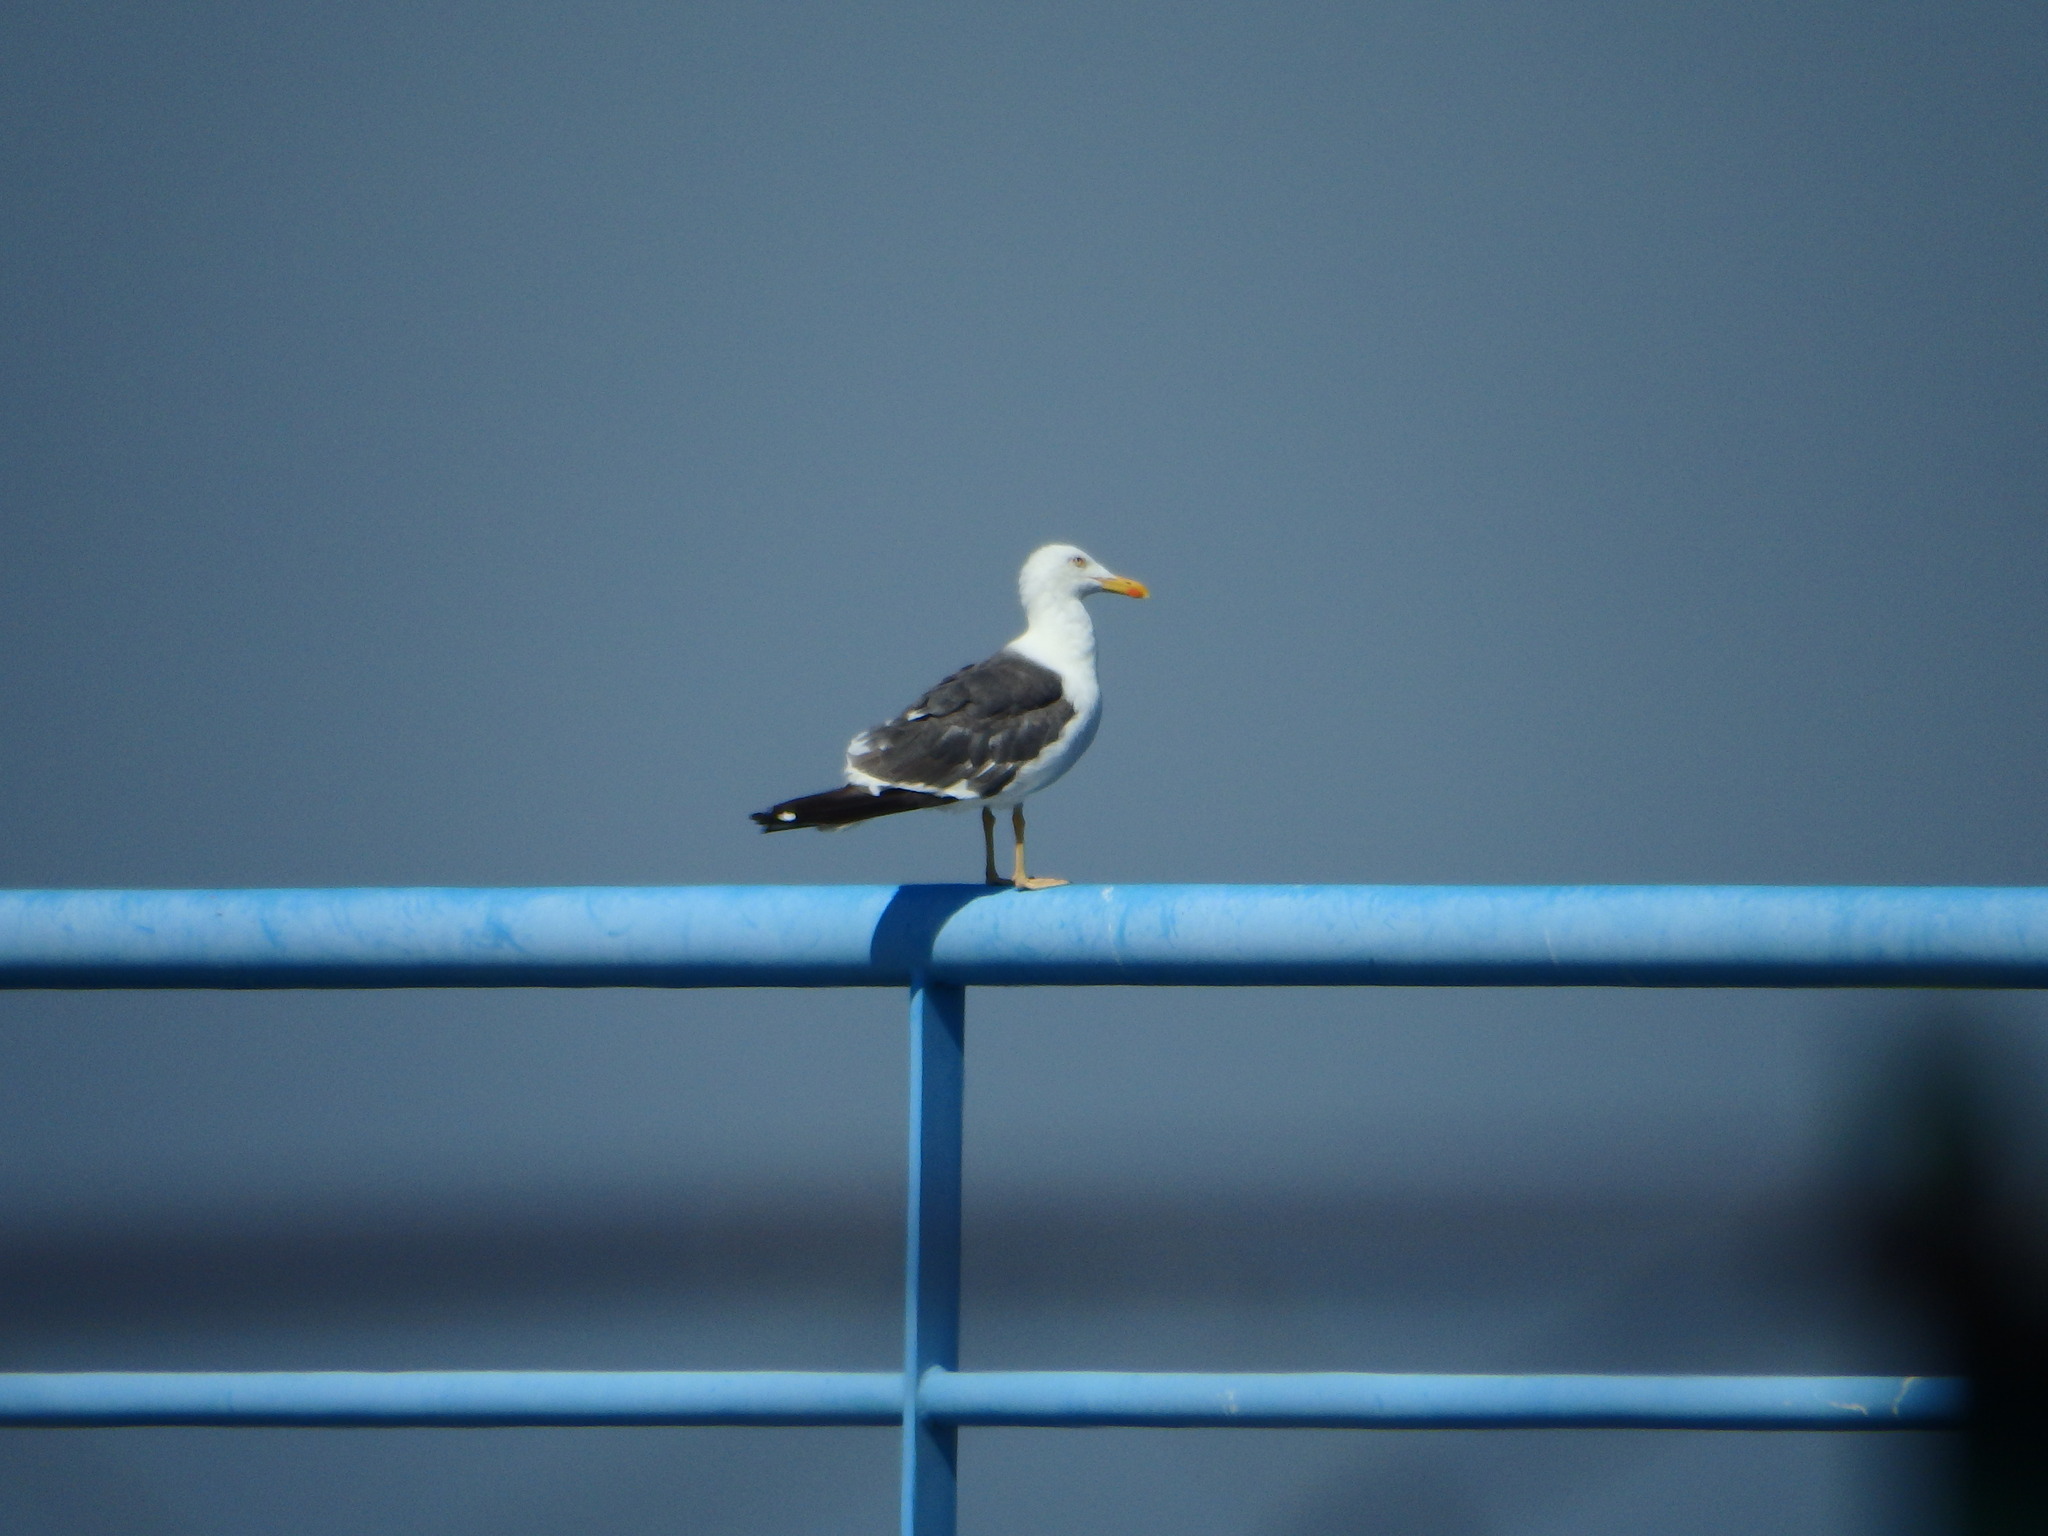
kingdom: Animalia
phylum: Chordata
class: Aves
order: Charadriiformes
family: Laridae
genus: Larus
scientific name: Larus fuscus
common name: Lesser black-backed gull
